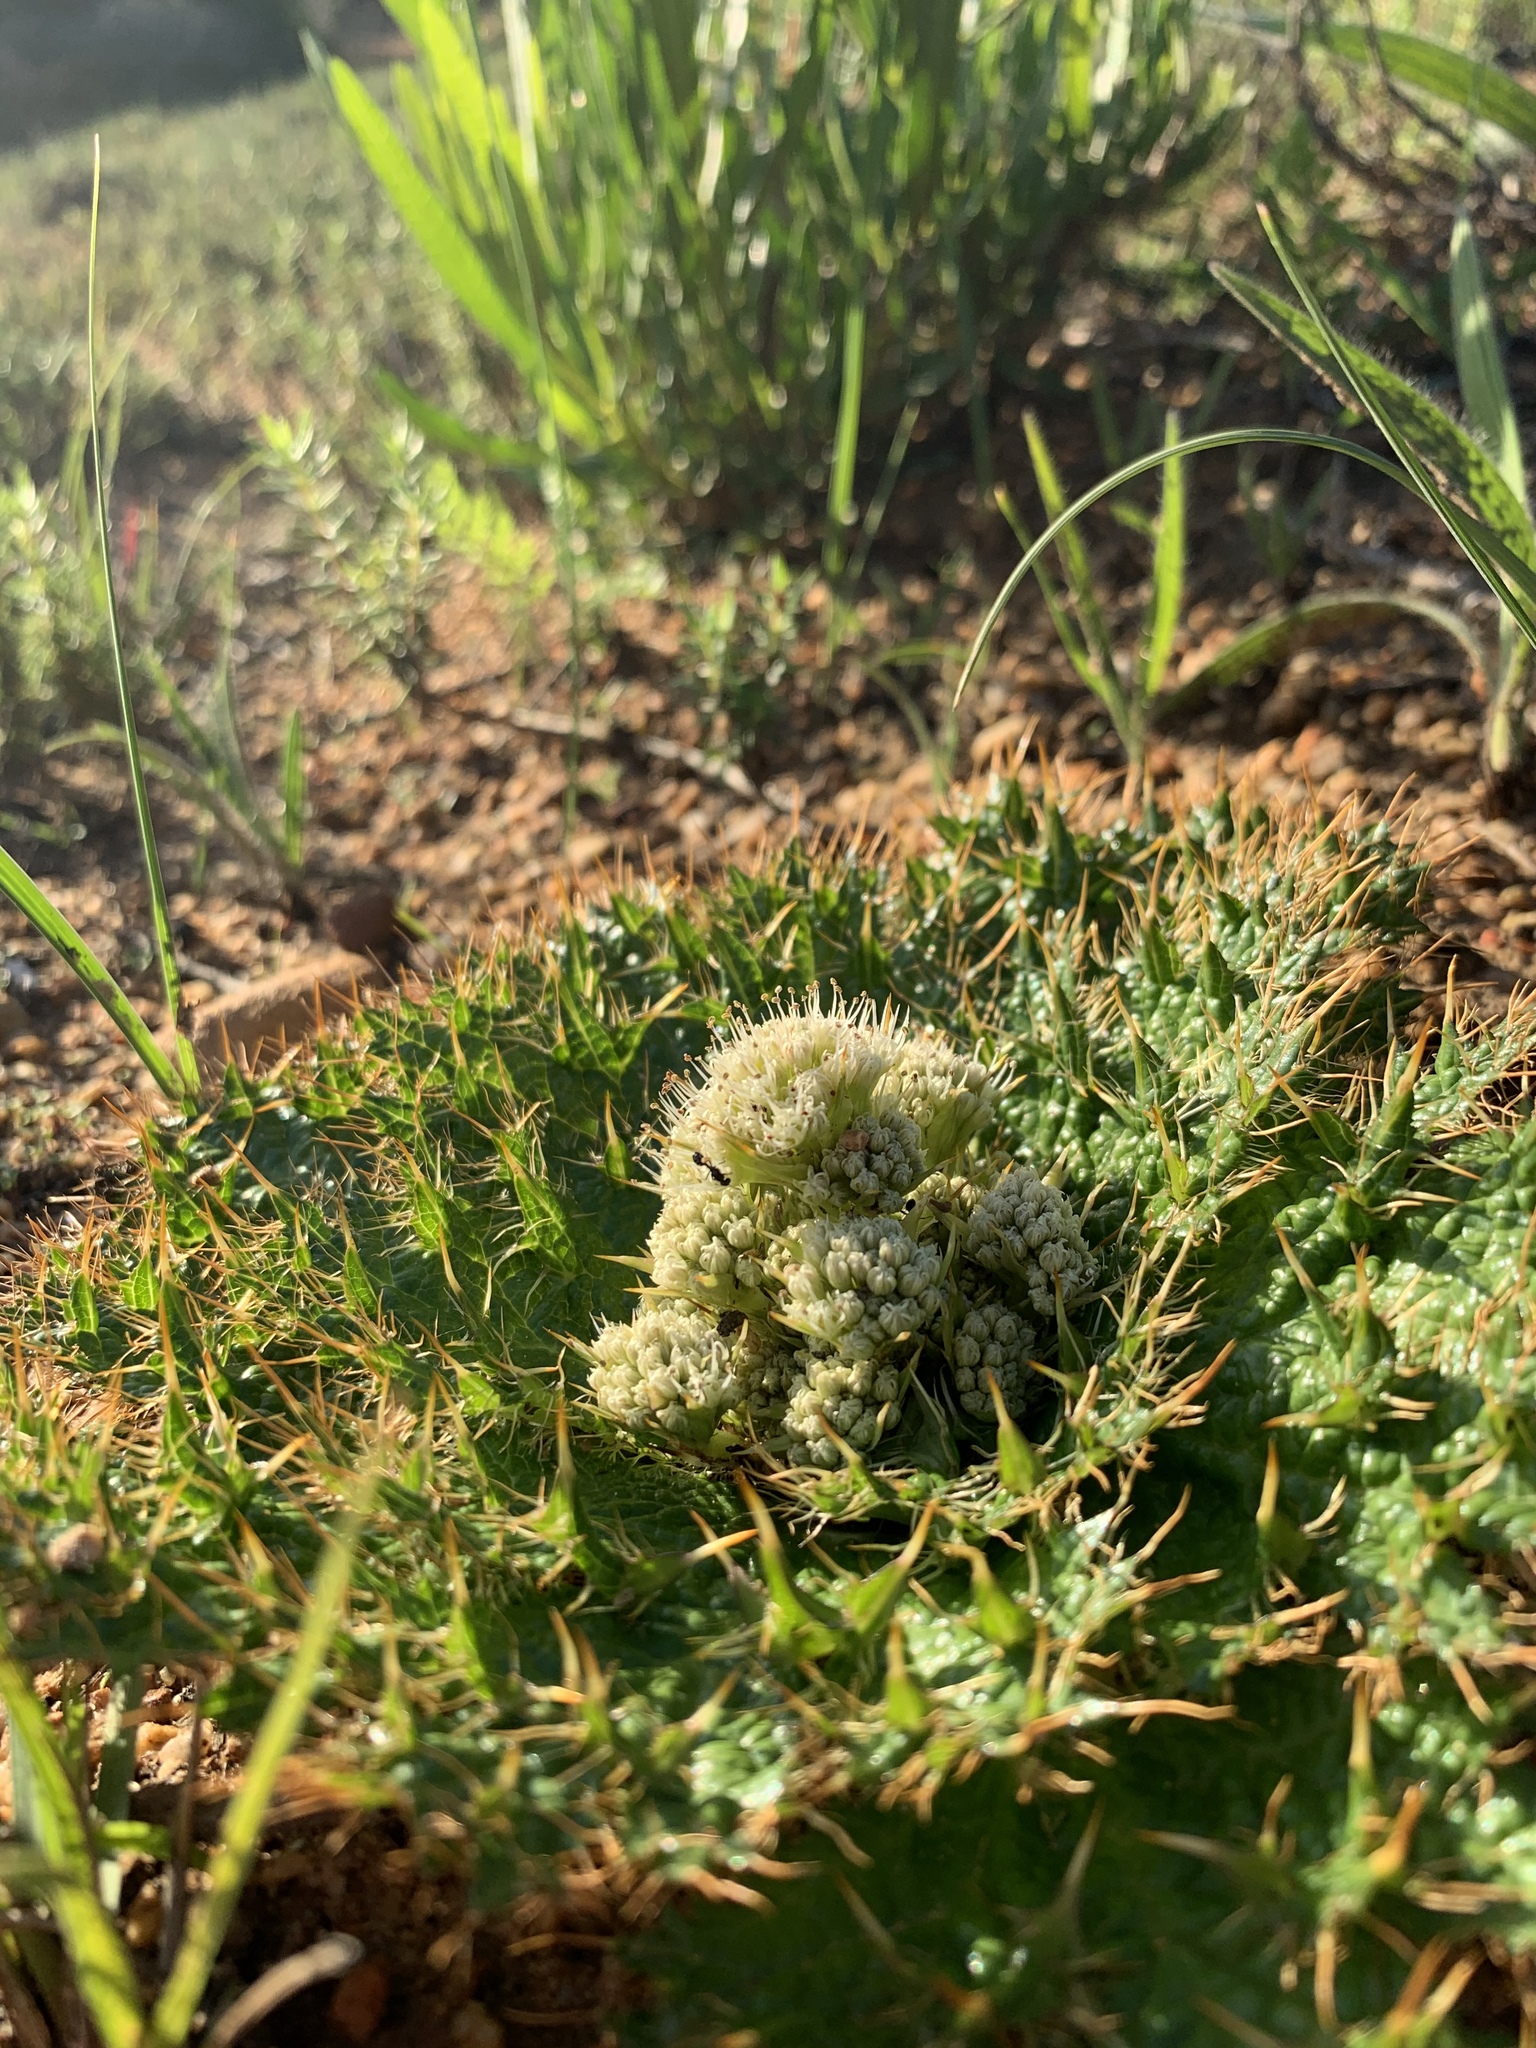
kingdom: Plantae
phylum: Tracheophyta
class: Magnoliopsida
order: Apiales
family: Apiaceae
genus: Arctopus
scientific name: Arctopus echinatus
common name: Platdoring
